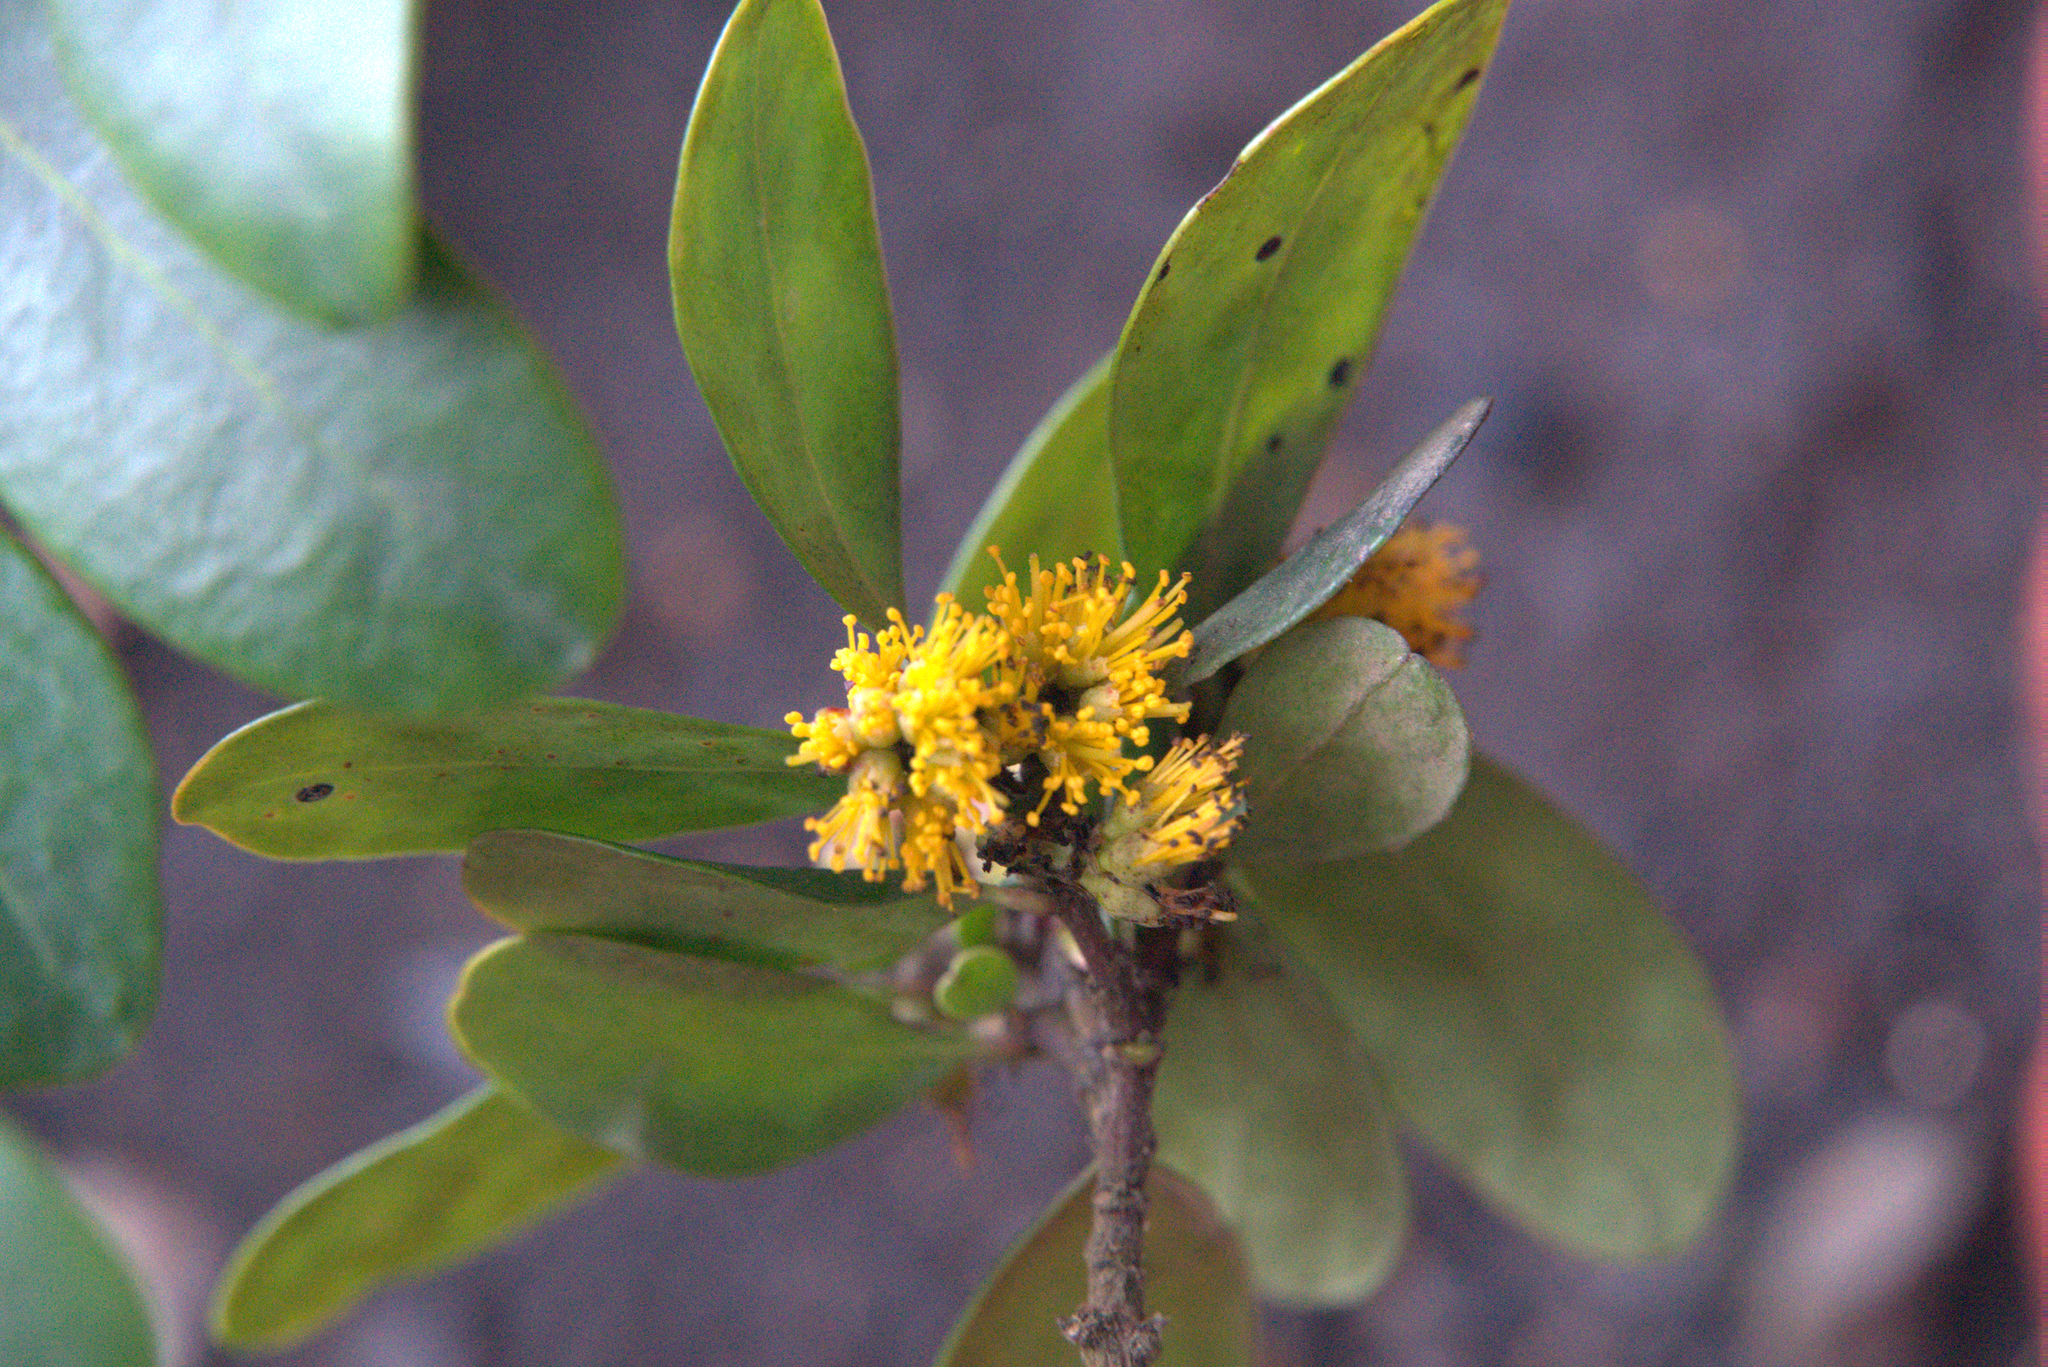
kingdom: Plantae
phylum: Tracheophyta
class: Magnoliopsida
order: Malpighiales
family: Salicaceae
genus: Azara
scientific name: Azara integrifolia
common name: Goldspire
